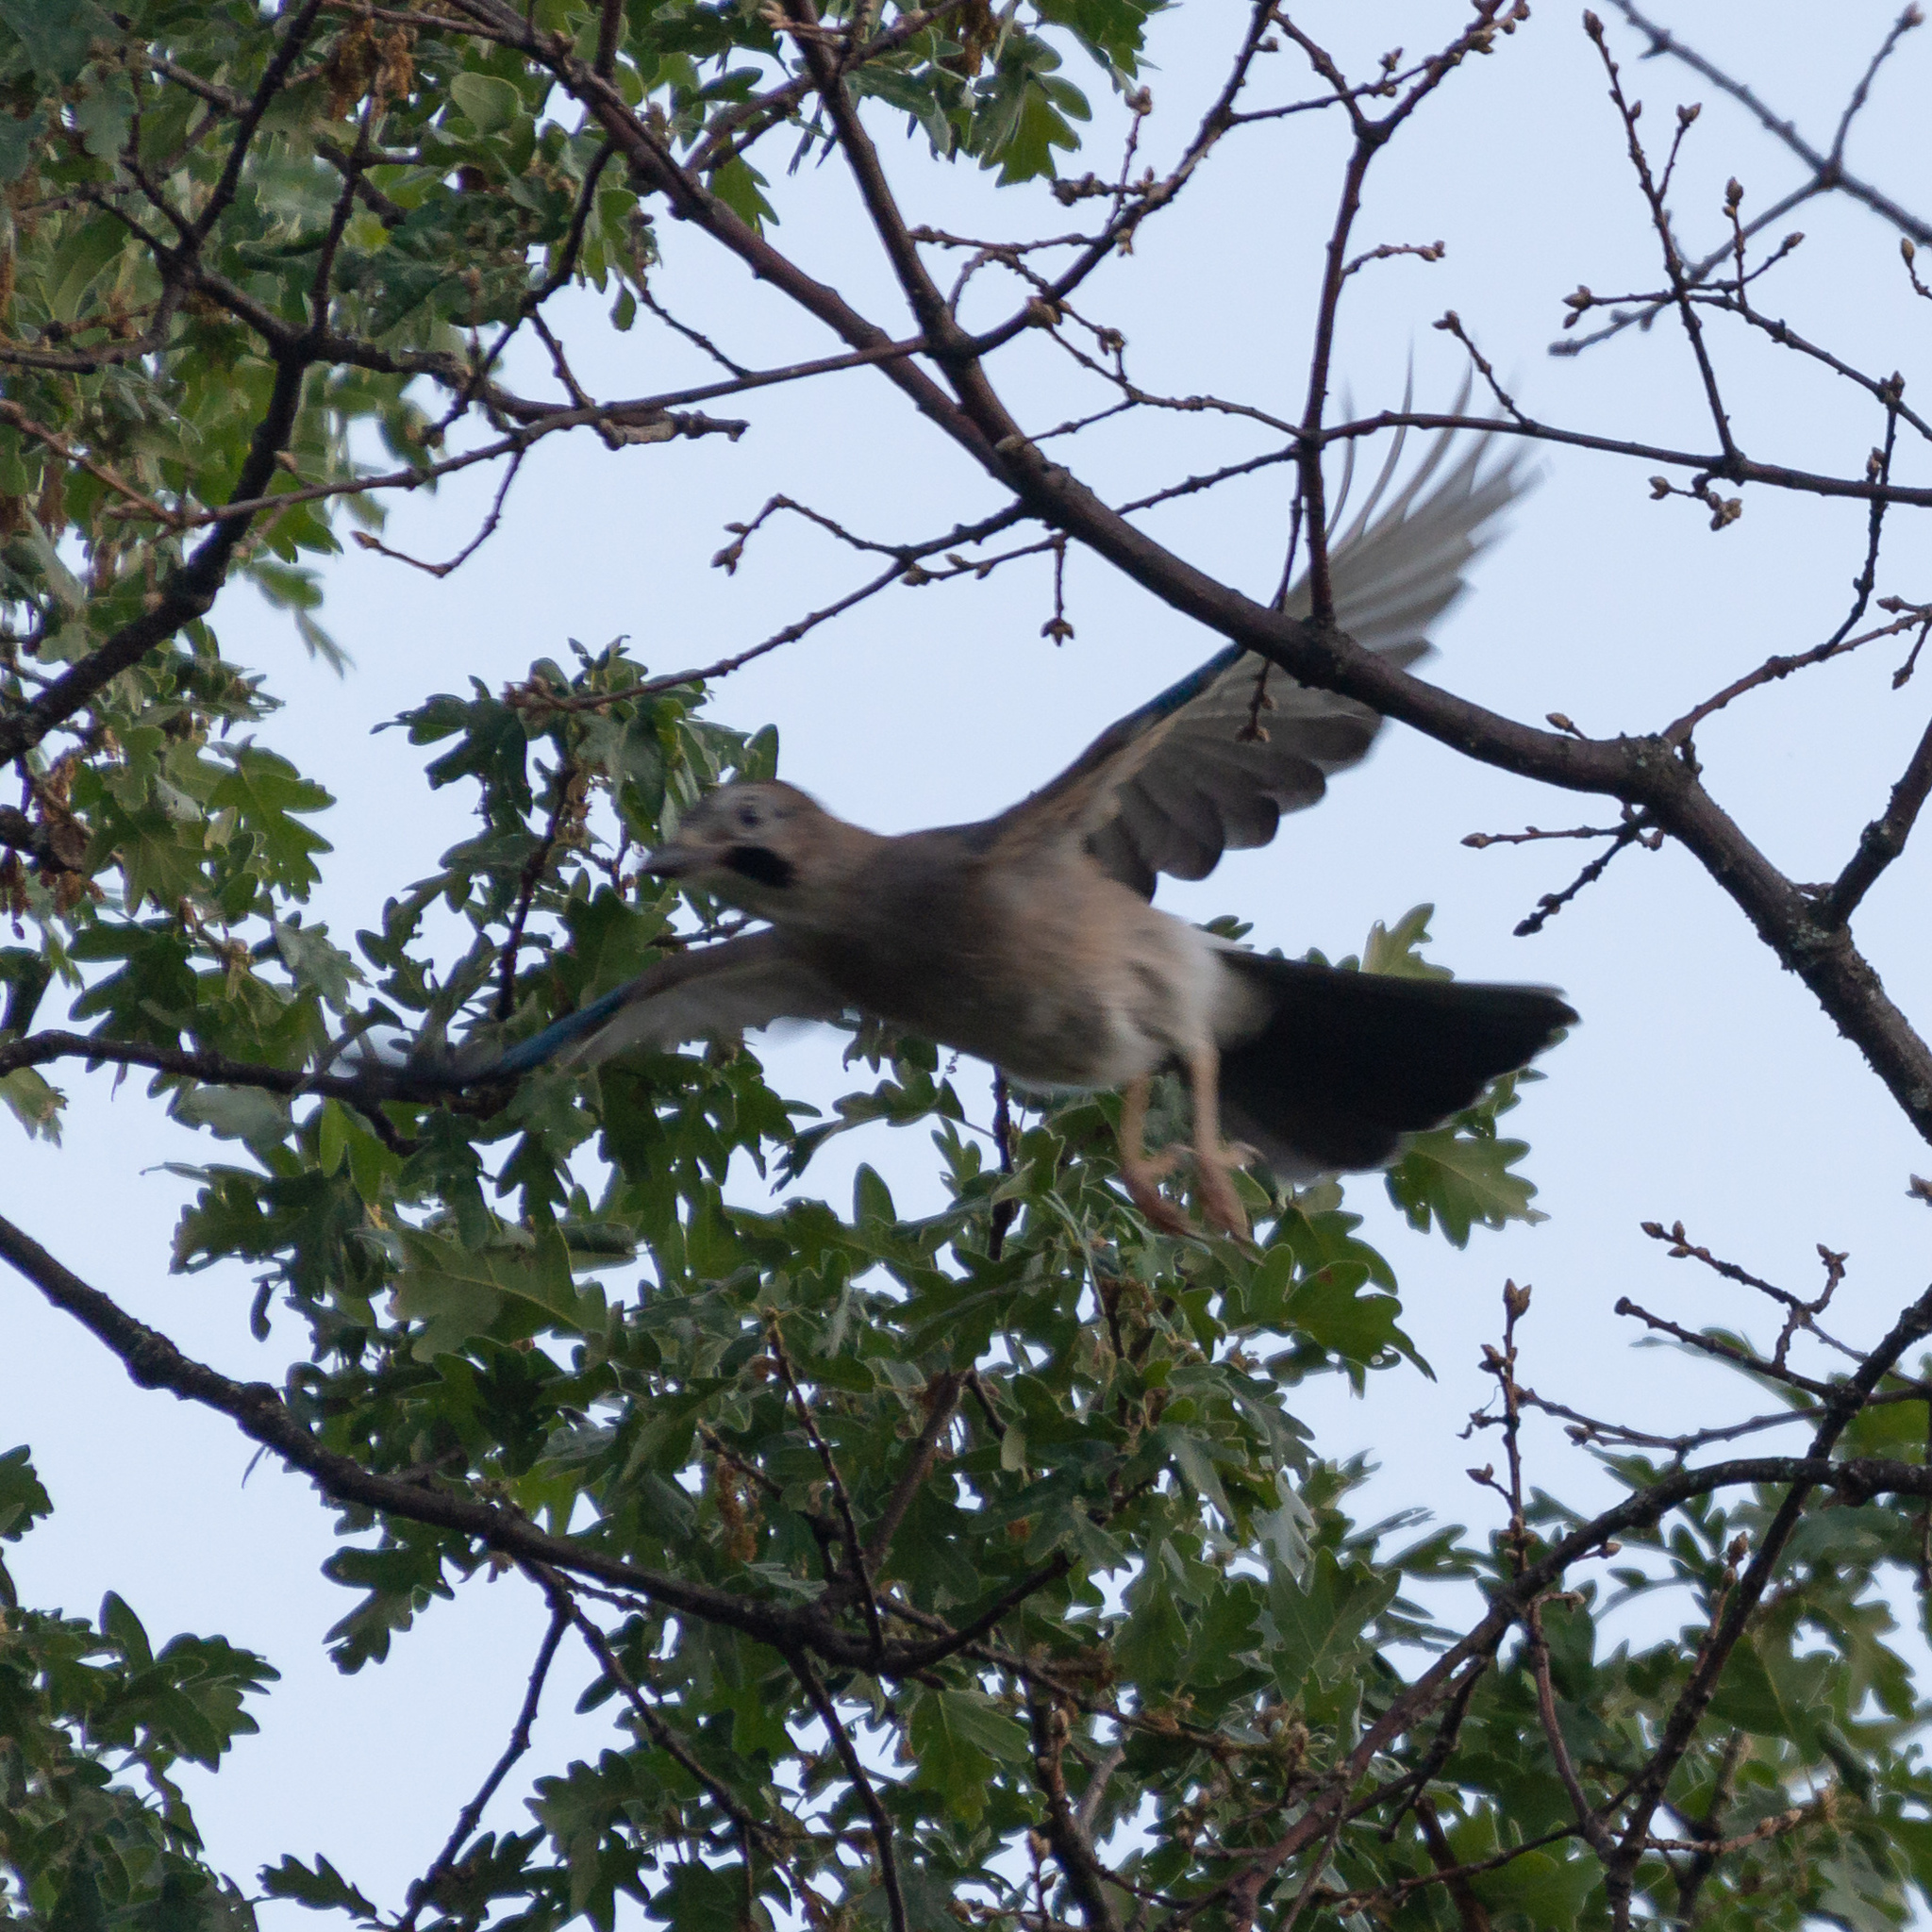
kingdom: Animalia
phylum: Chordata
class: Aves
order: Passeriformes
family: Corvidae
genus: Garrulus
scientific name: Garrulus glandarius
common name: Eurasian jay
